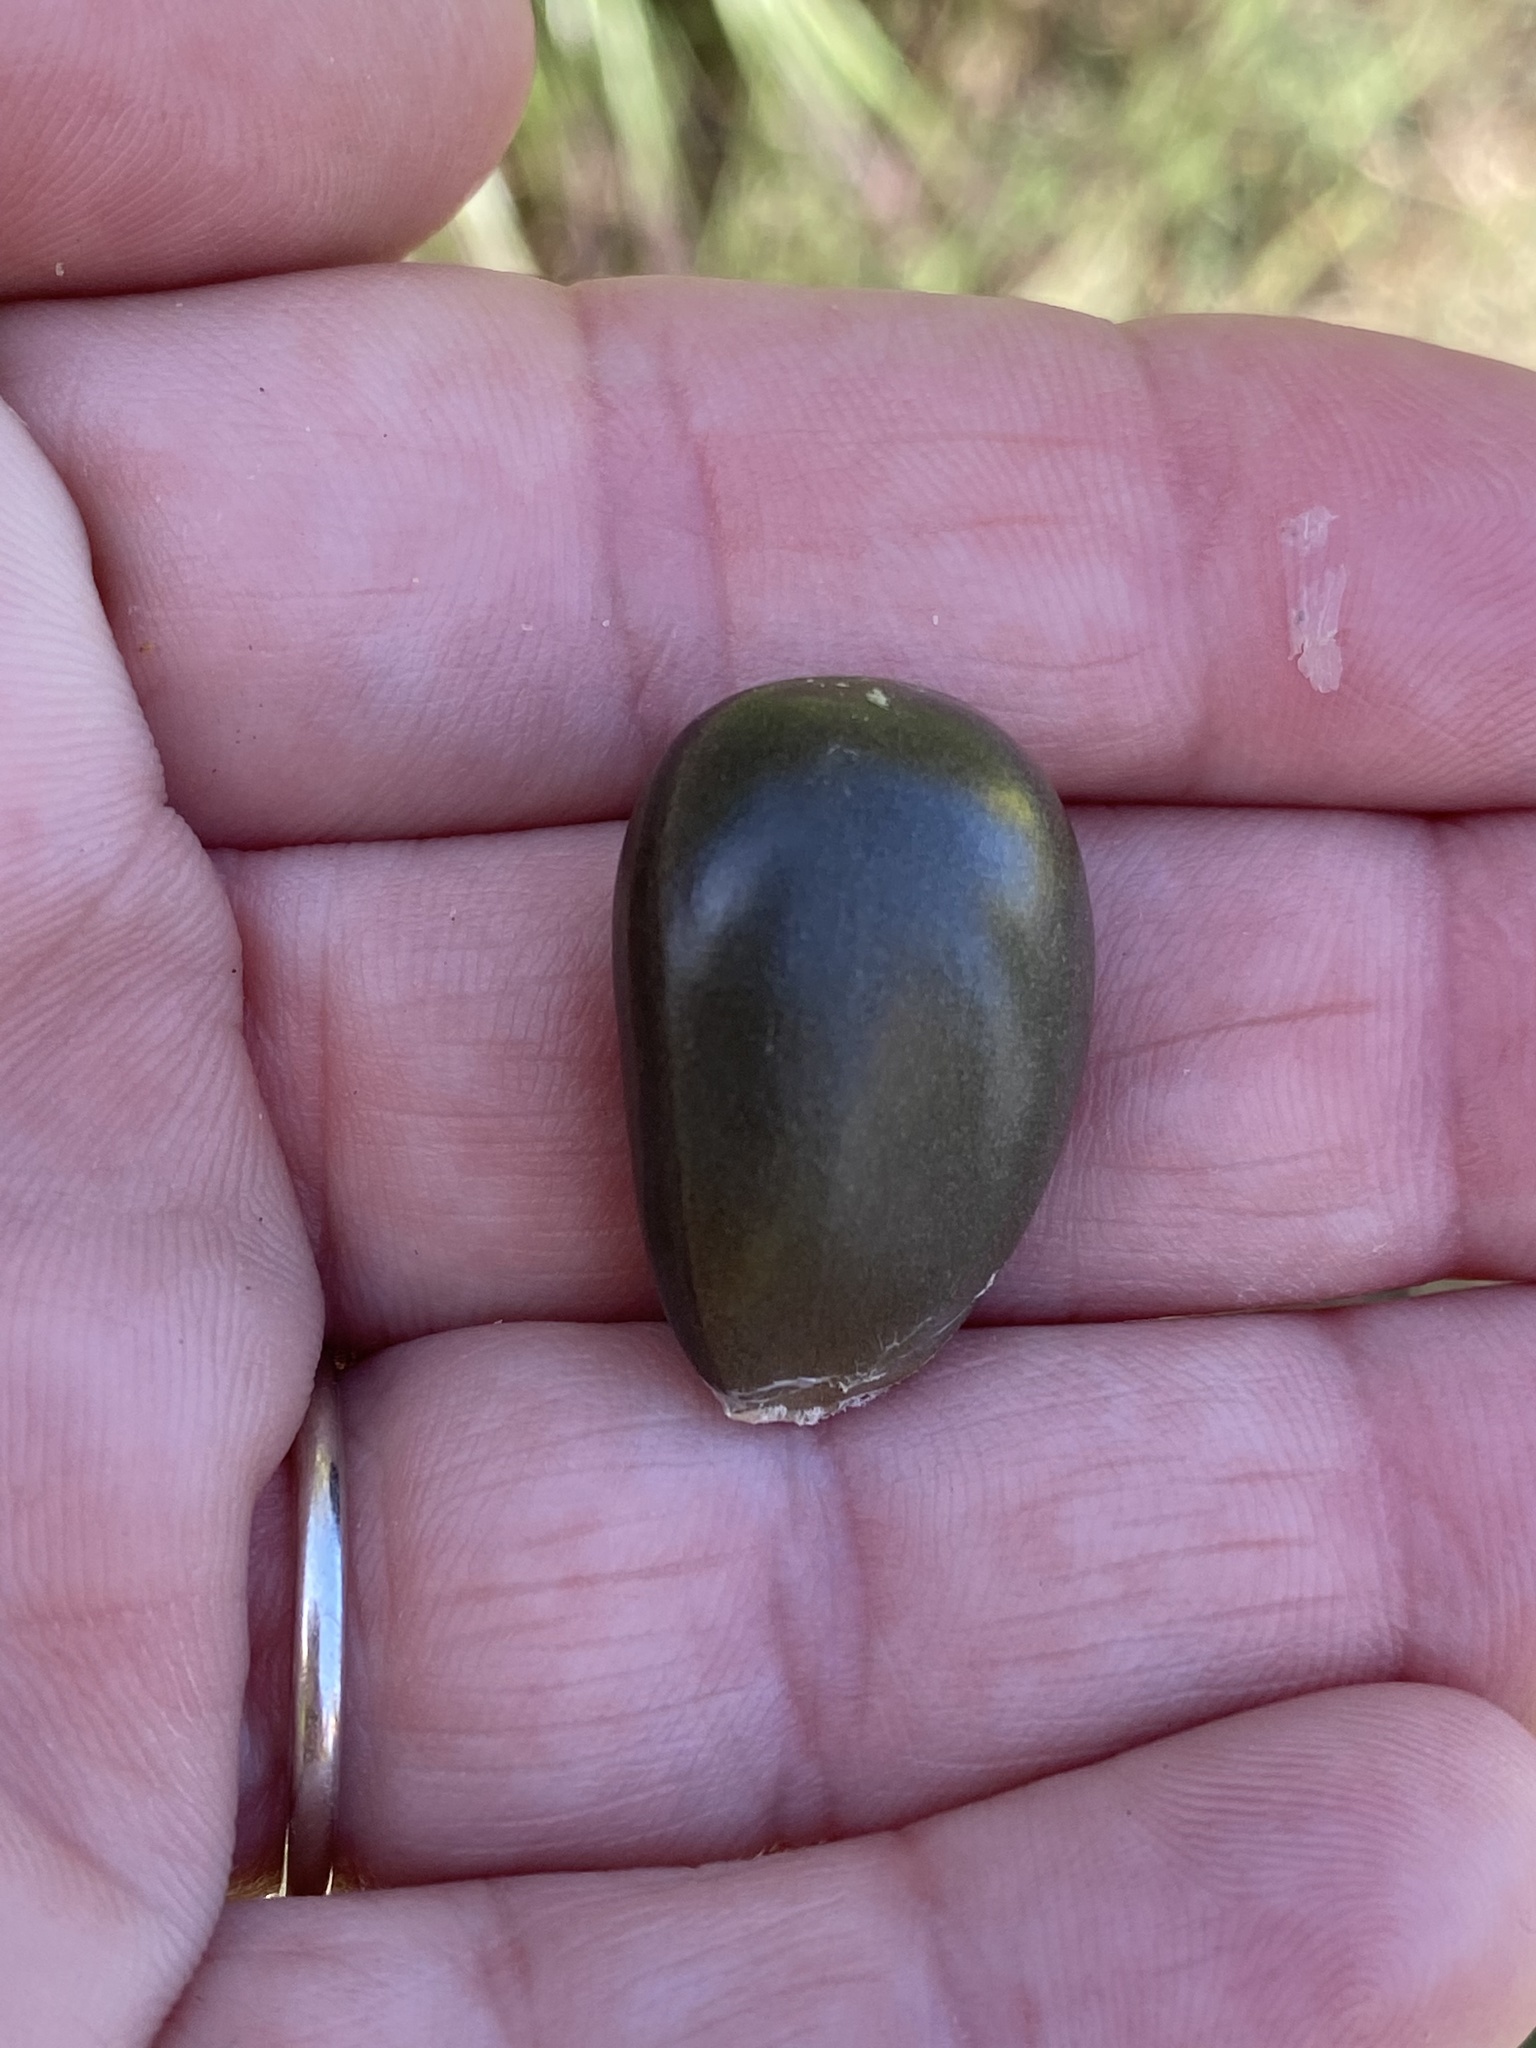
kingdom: Plantae
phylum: Tracheophyta
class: Magnoliopsida
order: Cucurbitales
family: Cucurbitaceae
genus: Marah
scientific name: Marah fabacea
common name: California manroot
